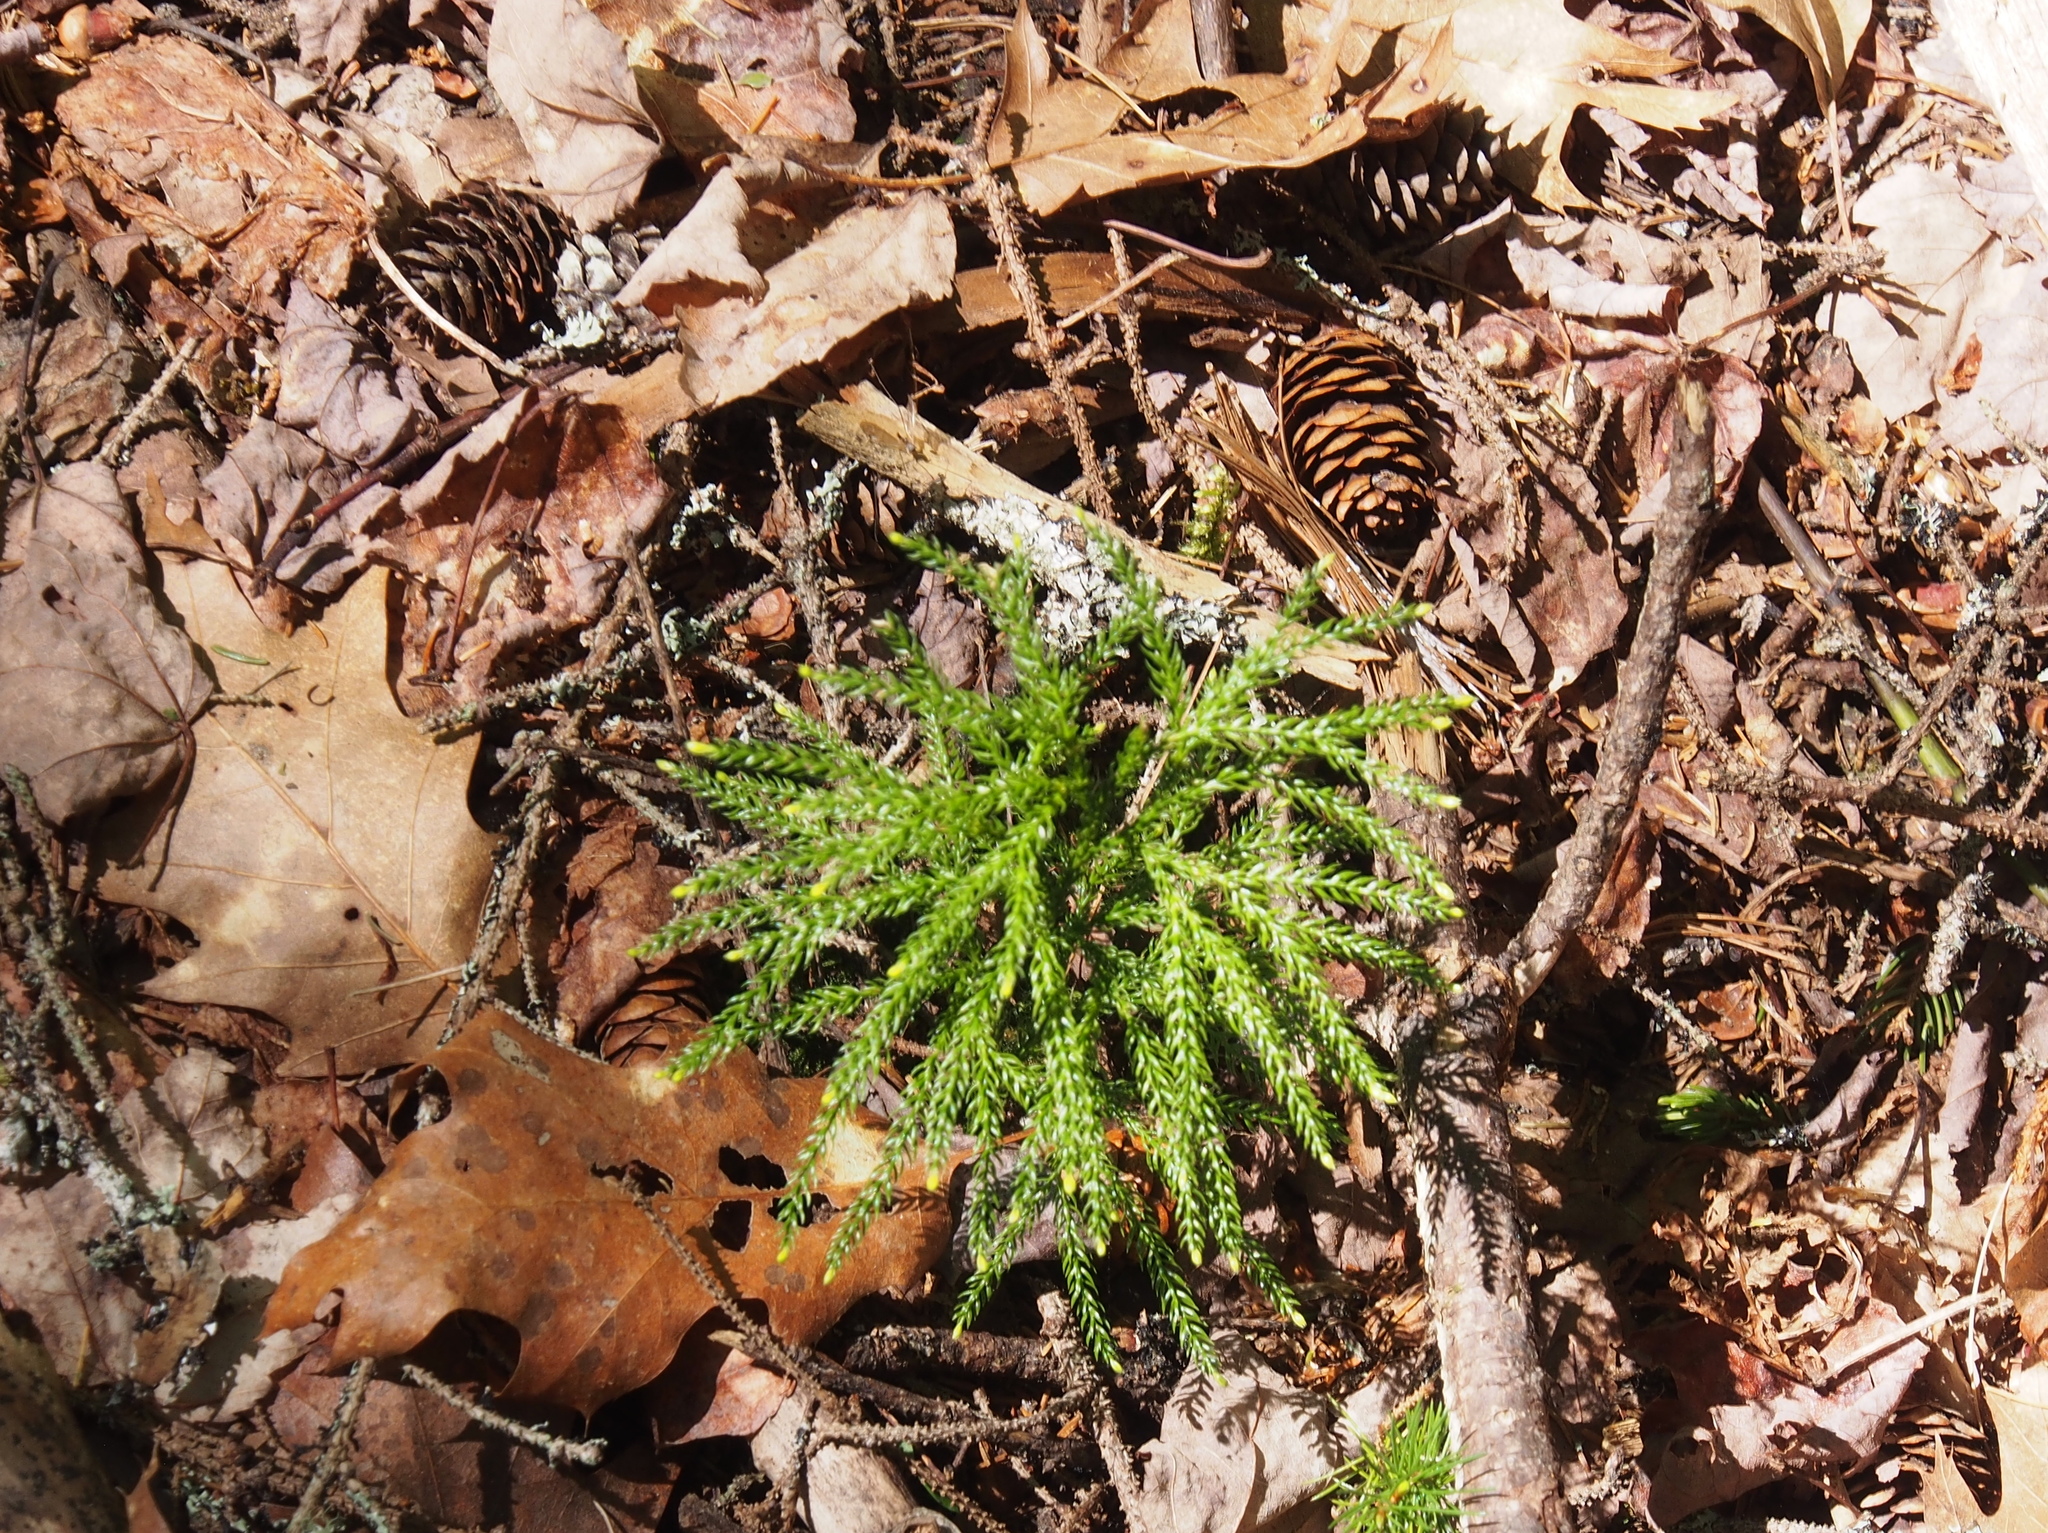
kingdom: Plantae
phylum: Tracheophyta
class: Pinopsida
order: Pinales
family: Pinaceae
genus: Picea
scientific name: Picea glauca
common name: White spruce
